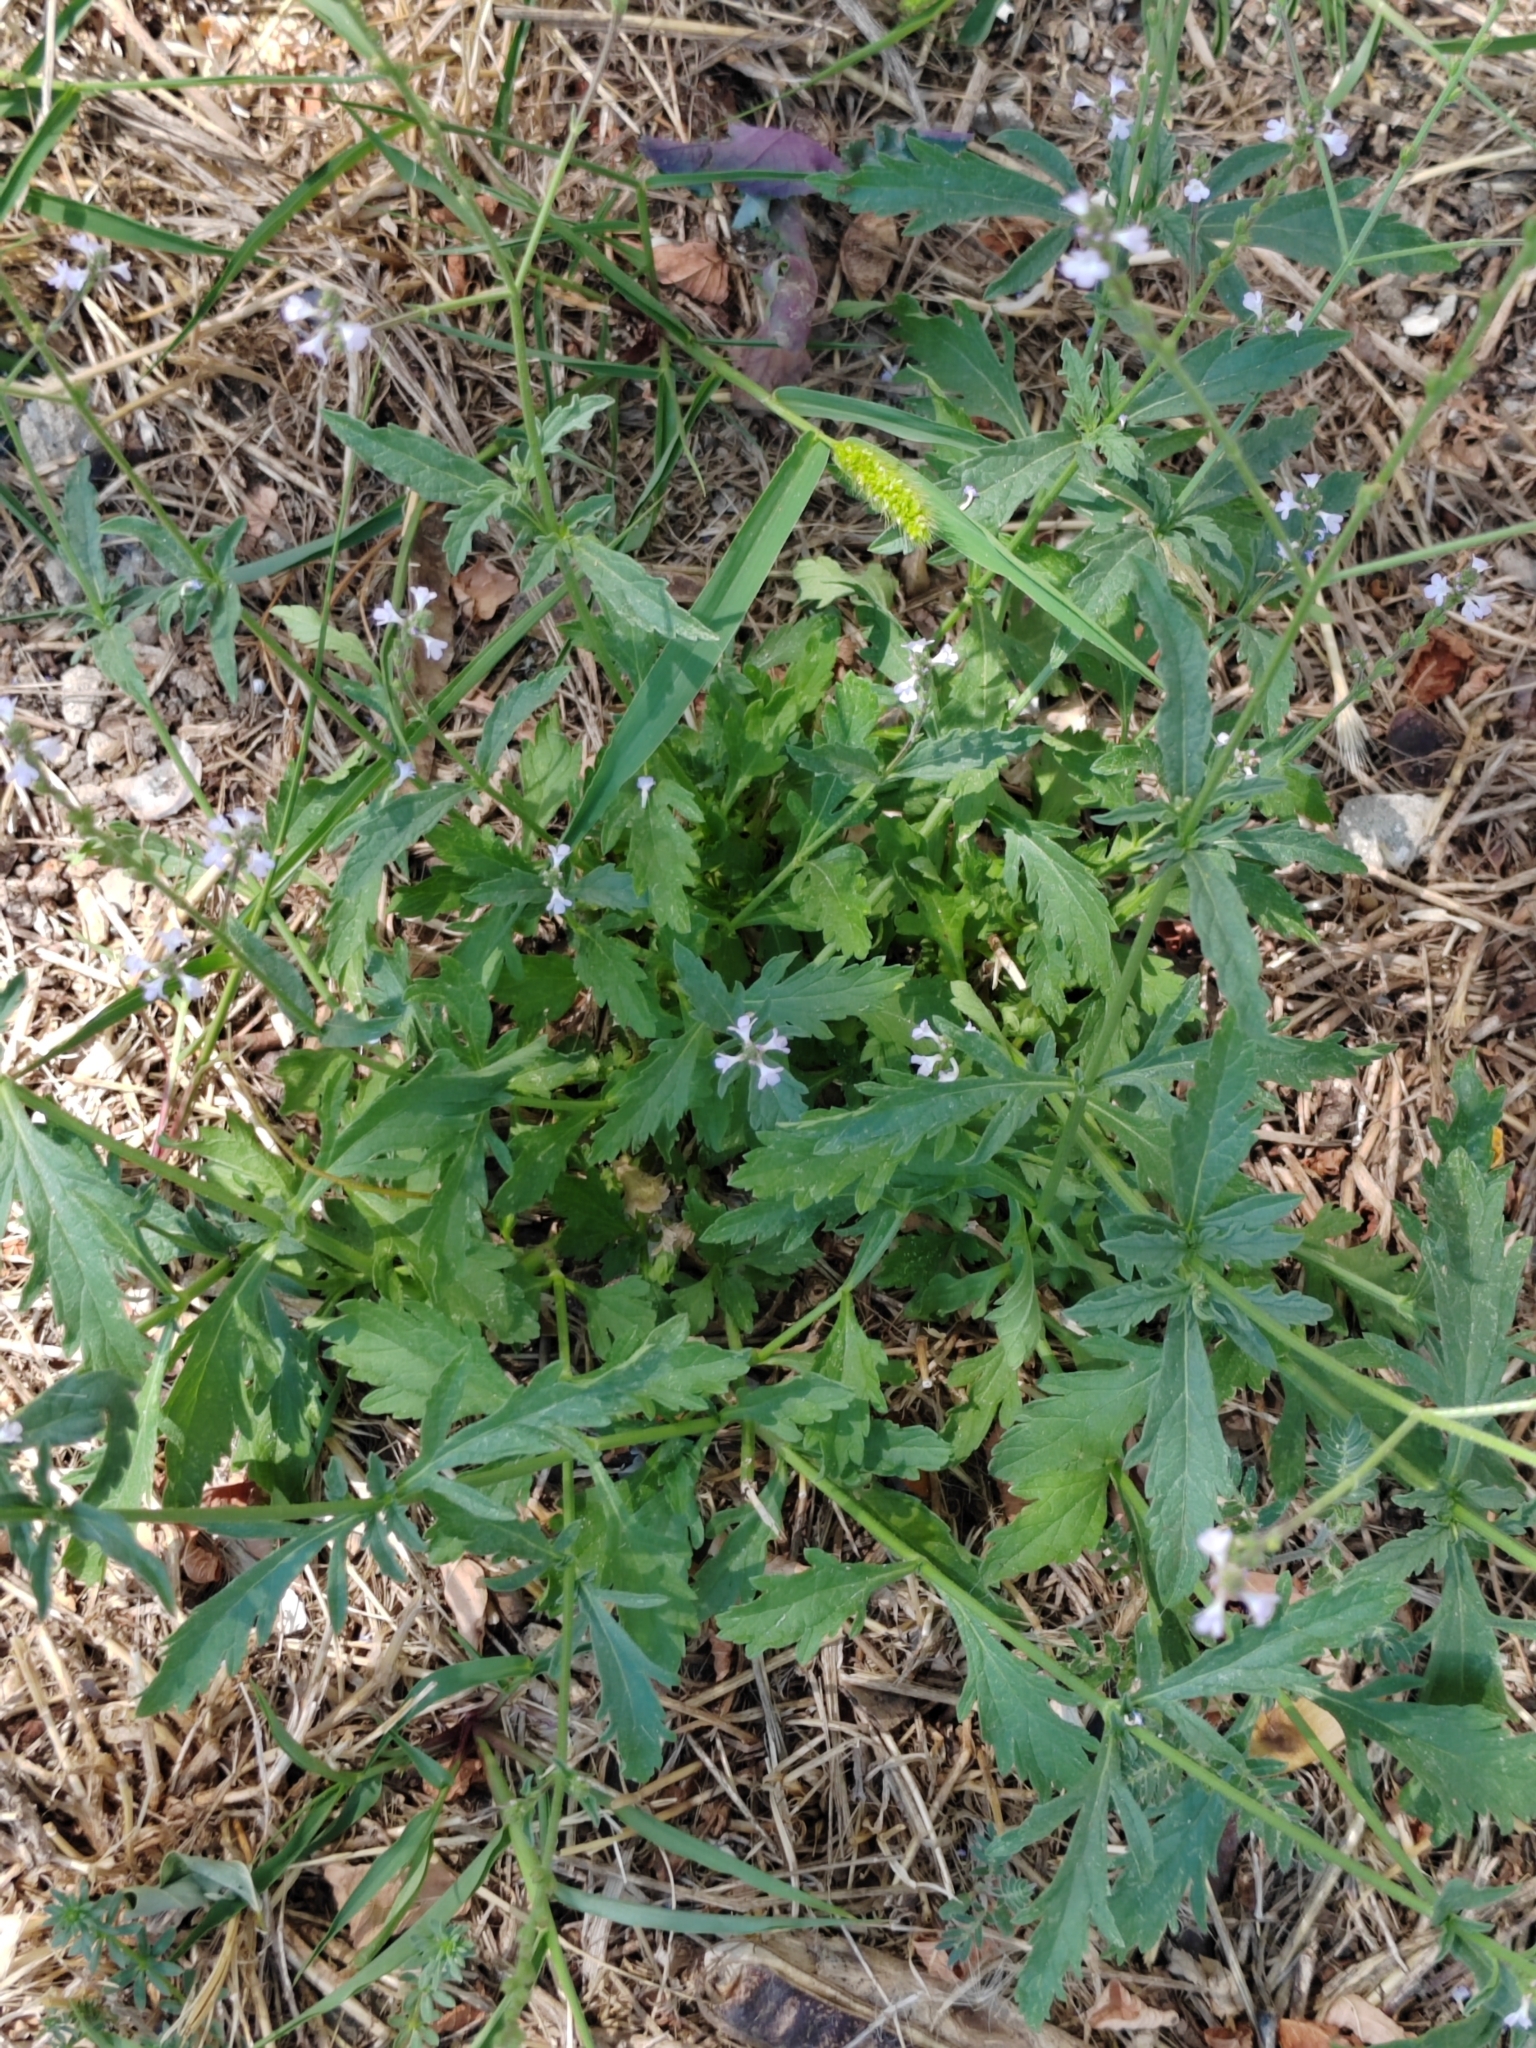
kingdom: Plantae
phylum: Tracheophyta
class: Magnoliopsida
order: Lamiales
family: Verbenaceae
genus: Verbena
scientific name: Verbena officinalis
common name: Vervain
